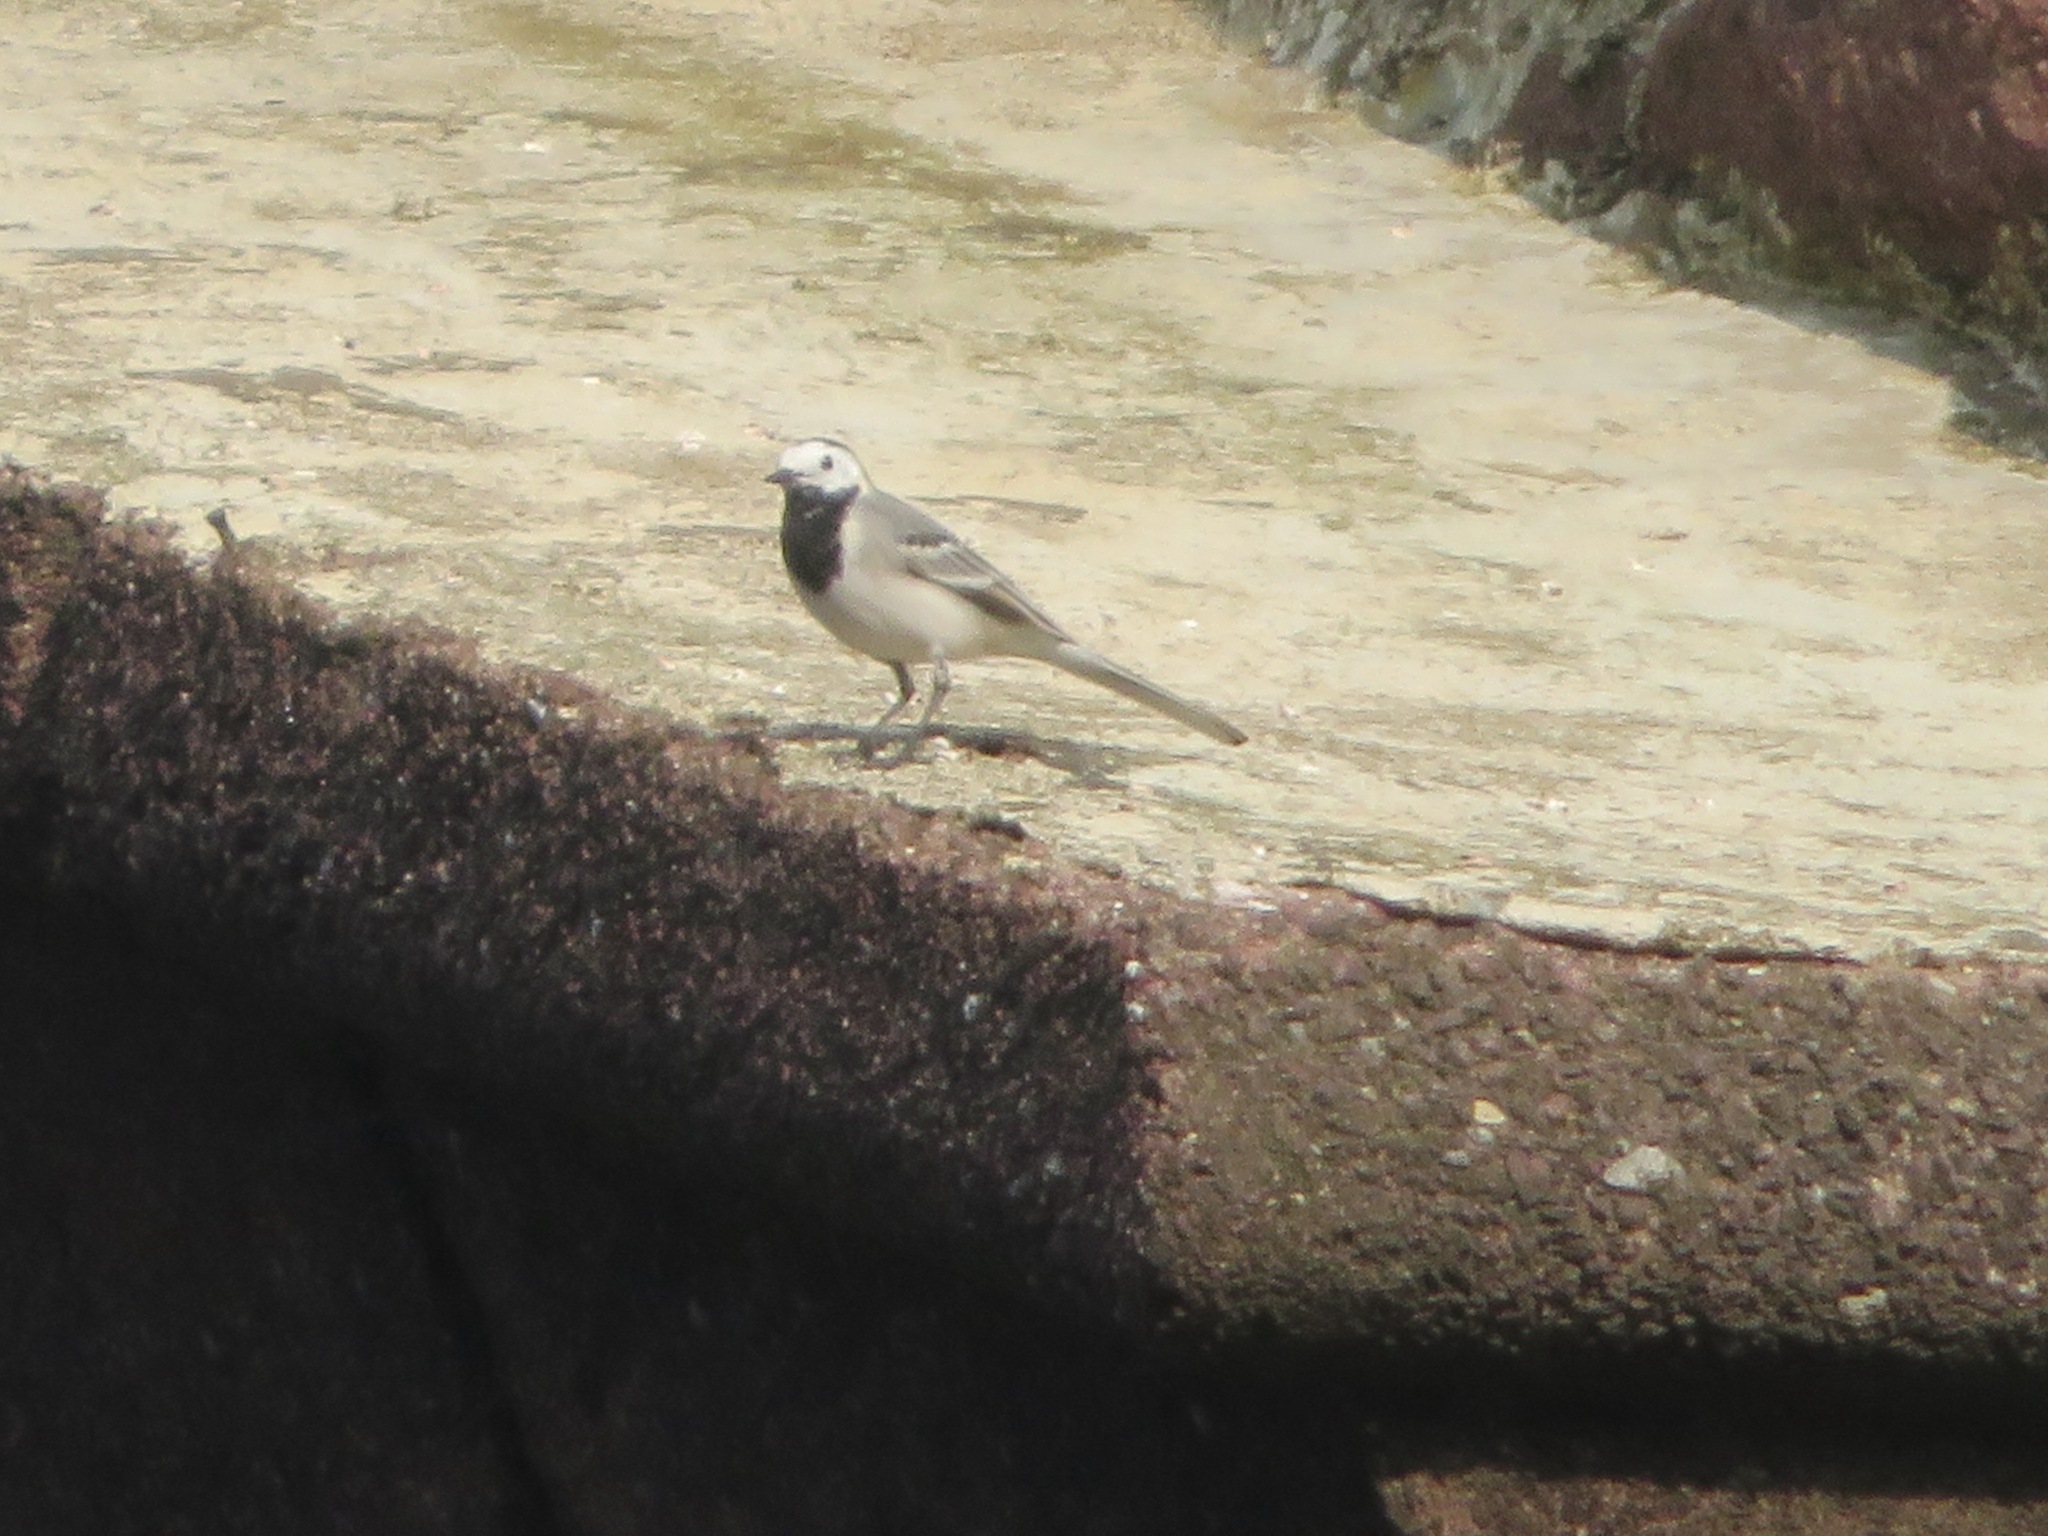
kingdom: Animalia
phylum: Chordata
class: Aves
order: Passeriformes
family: Motacillidae
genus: Motacilla
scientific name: Motacilla alba
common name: White wagtail
